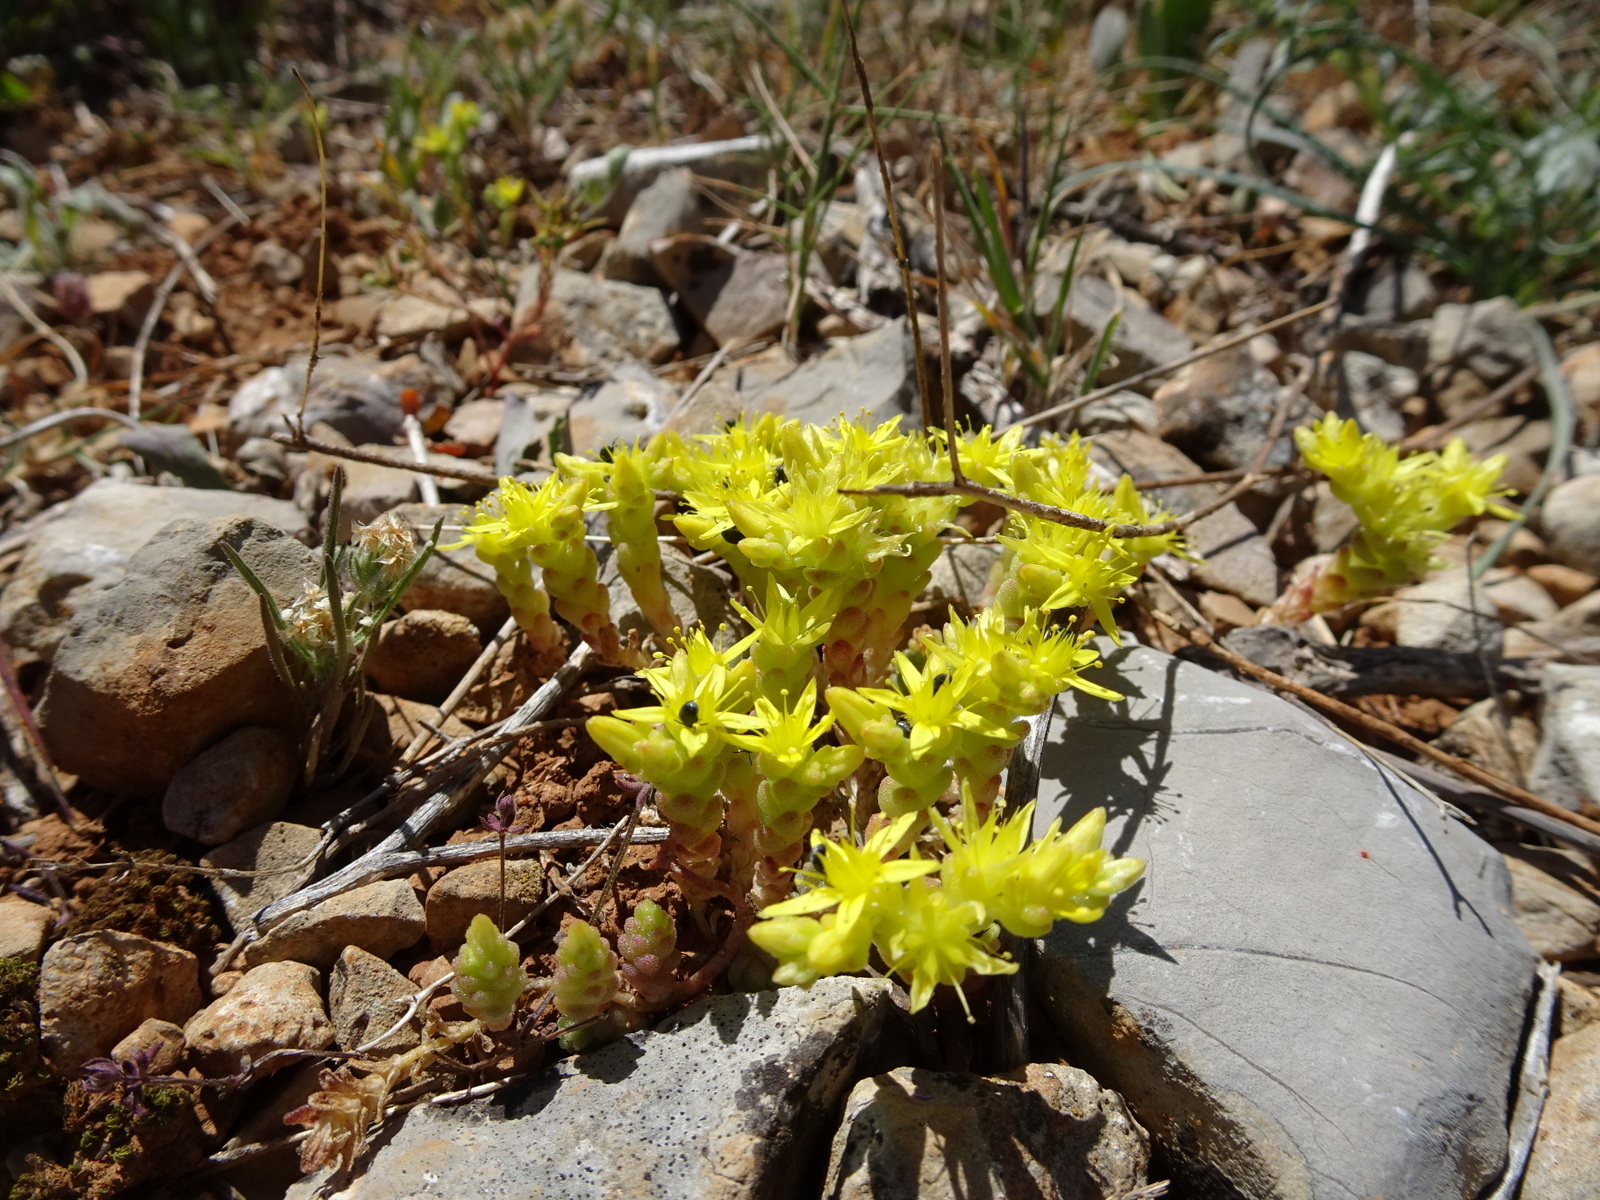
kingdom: Plantae
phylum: Tracheophyta
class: Magnoliopsida
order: Saxifragales
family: Crassulaceae
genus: Sedum
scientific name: Sedum acre
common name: Biting stonecrop
